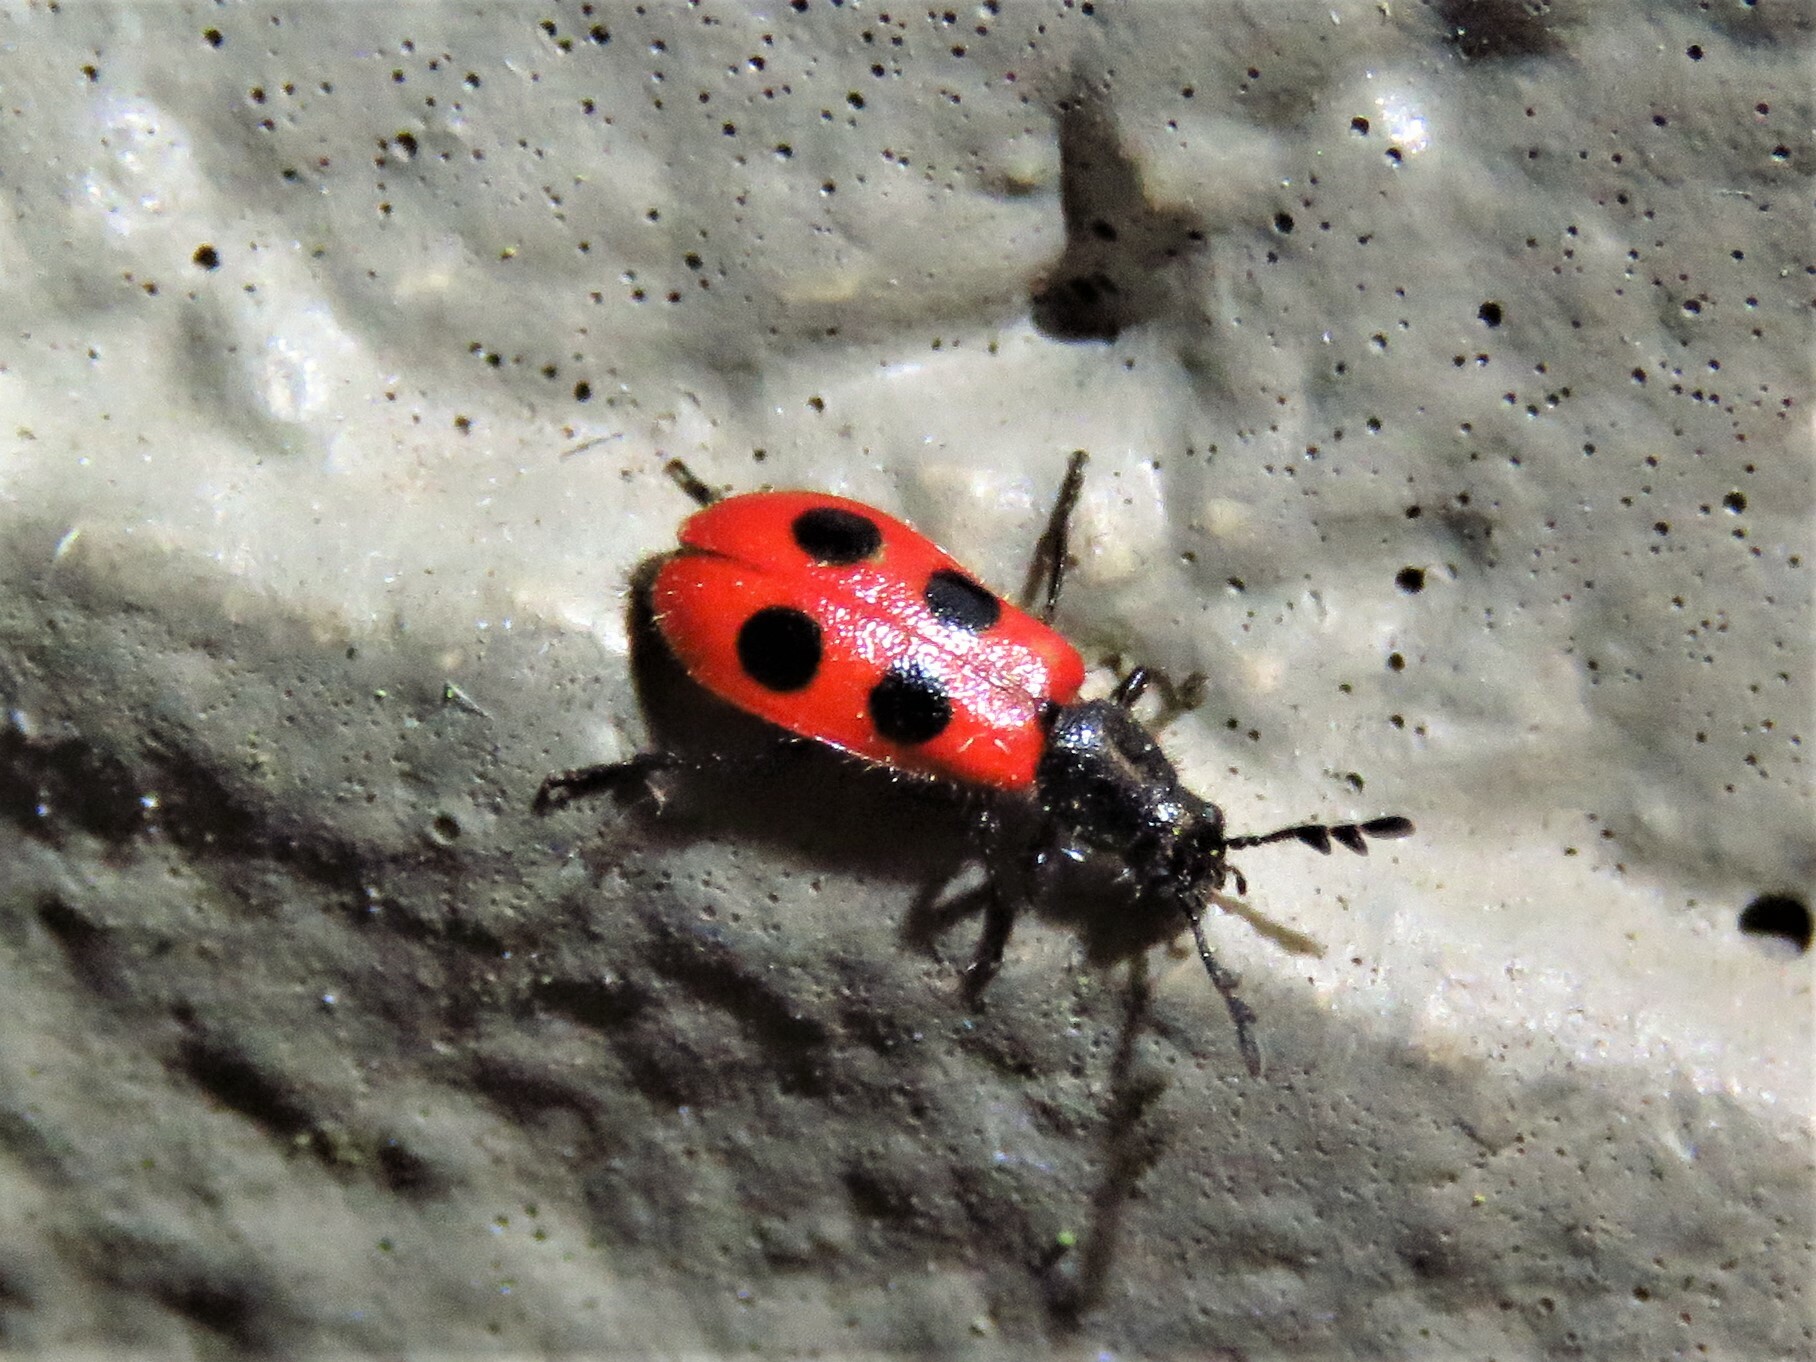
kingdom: Animalia
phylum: Arthropoda
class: Insecta
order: Coleoptera
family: Cleridae
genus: Pelonides
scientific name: Pelonides quadripunctatus
